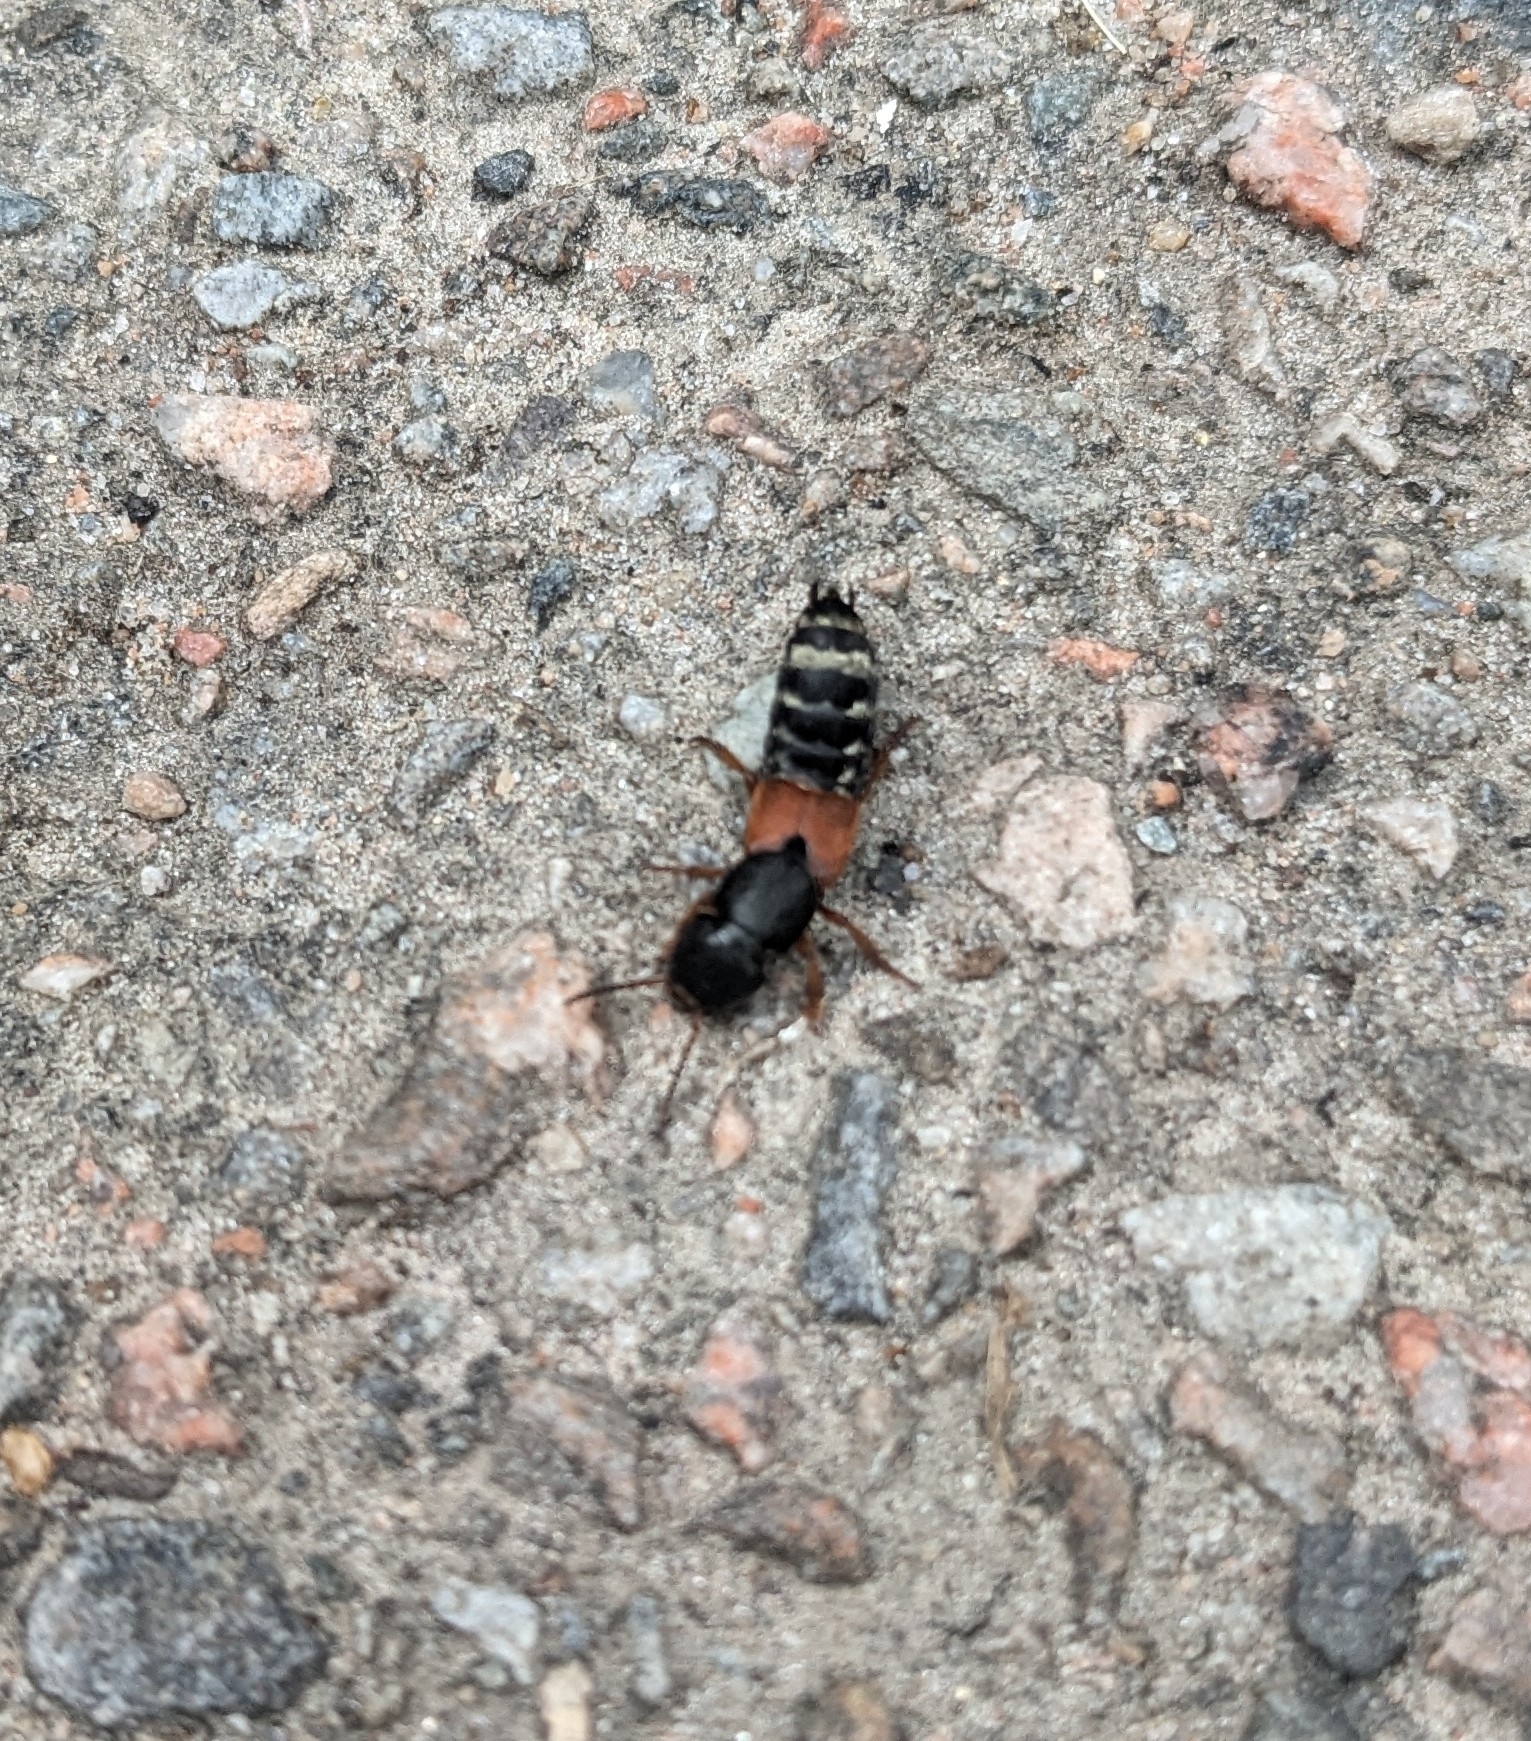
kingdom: Animalia
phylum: Arthropoda
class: Insecta
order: Coleoptera
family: Staphylinidae
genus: Platydracus
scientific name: Platydracus stercorarius
